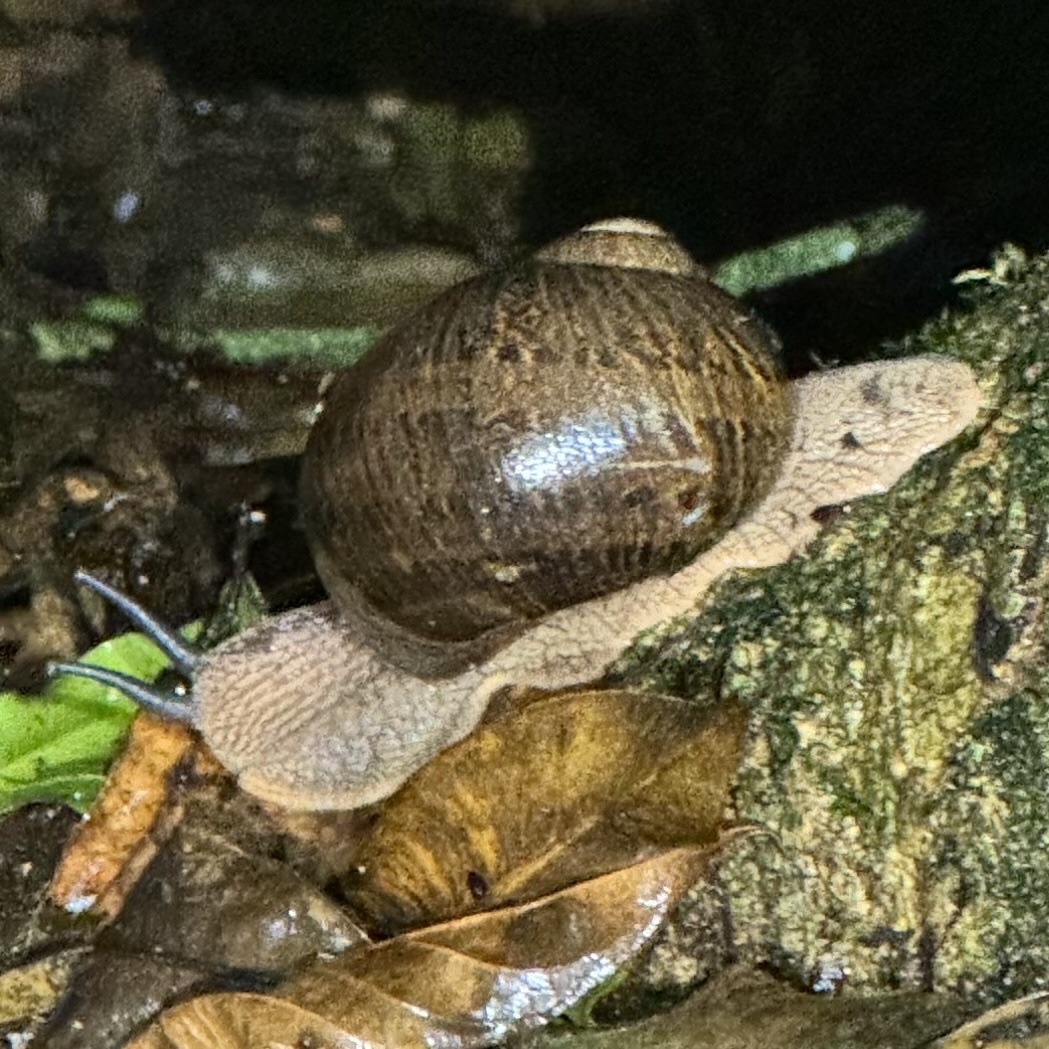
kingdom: Animalia
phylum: Mollusca
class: Gastropoda
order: Stylommatophora
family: Caryodidae
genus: Hedleyella
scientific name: Hedleyella falconeri
